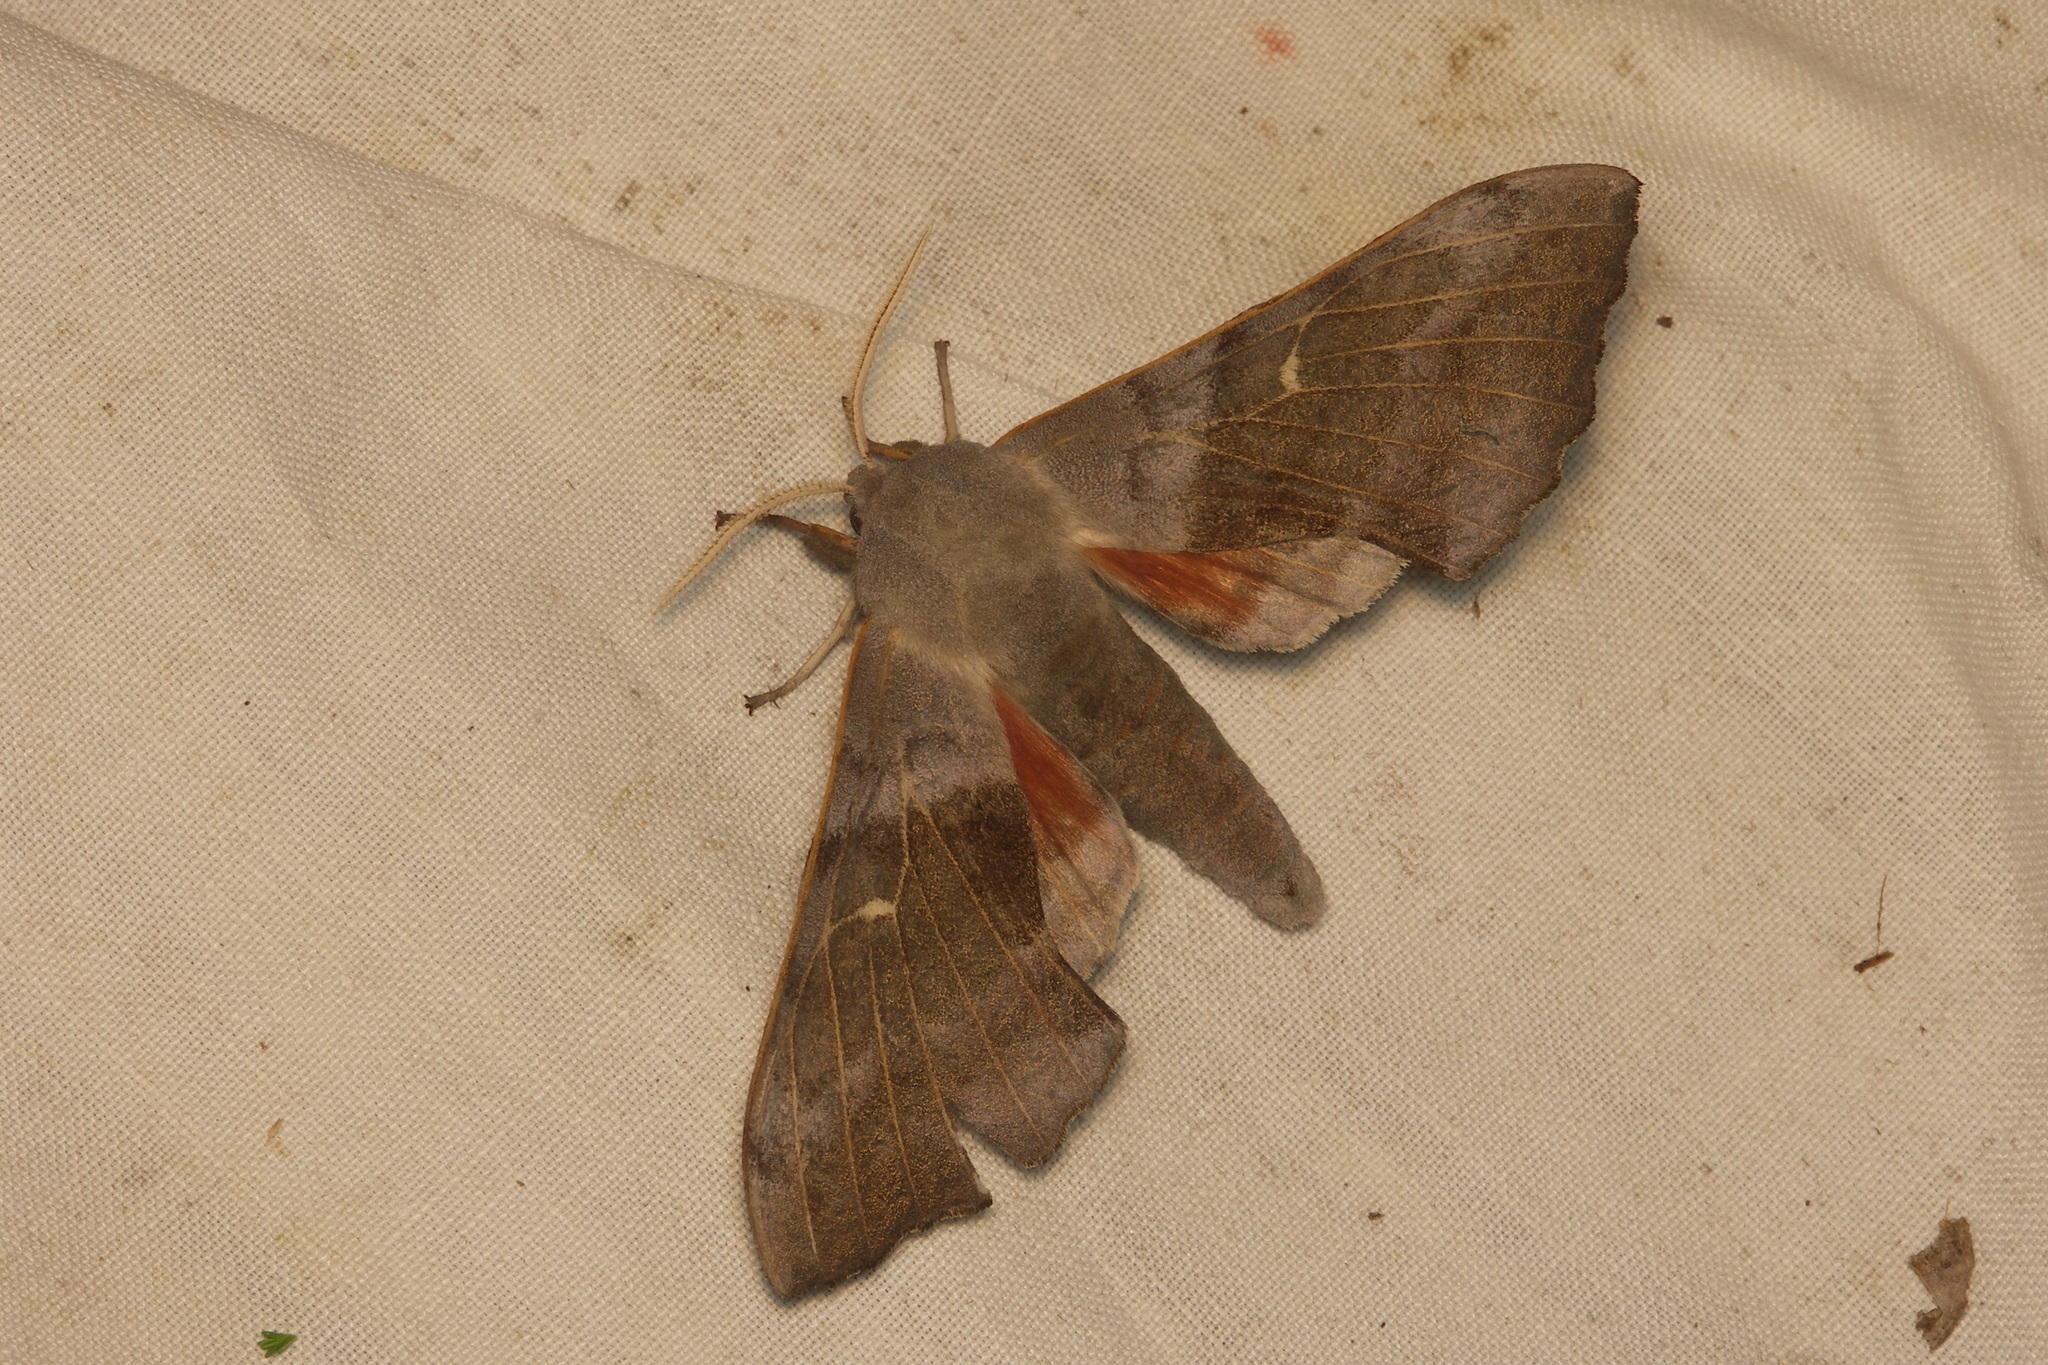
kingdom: Animalia
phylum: Arthropoda
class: Insecta
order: Lepidoptera
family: Sphingidae
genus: Laothoe
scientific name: Laothoe populi
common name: Poplar hawk-moth
